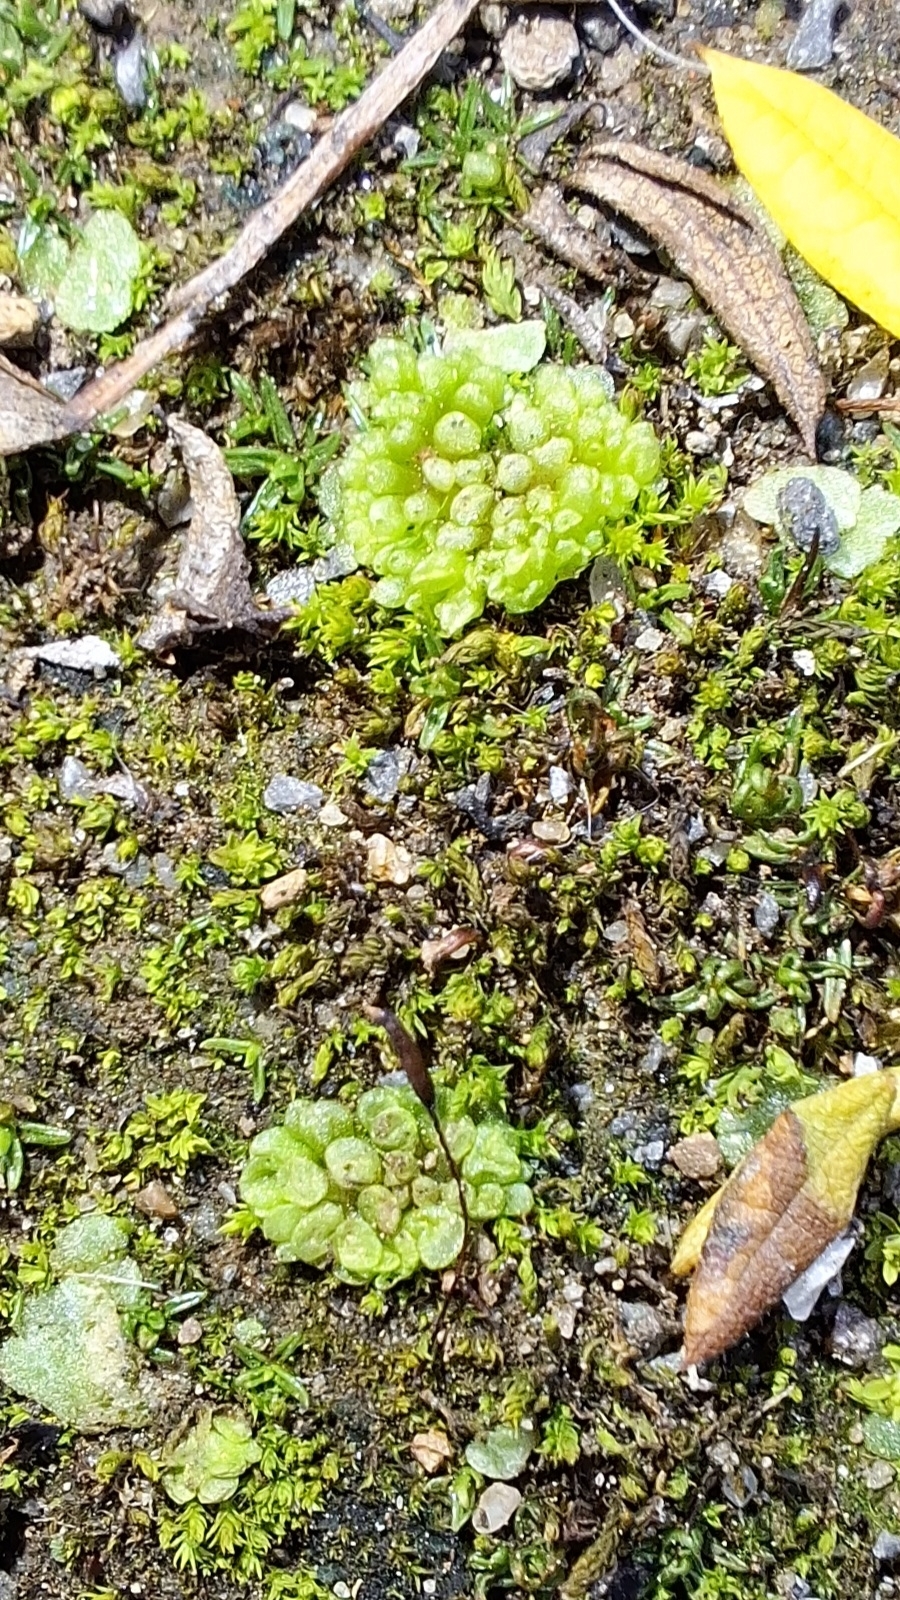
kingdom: Plantae
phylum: Marchantiophyta
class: Marchantiopsida
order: Sphaerocarpales
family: Sphaerocarpaceae
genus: Sphaerocarpos
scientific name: Sphaerocarpos texanus
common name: Texas balloonwort
